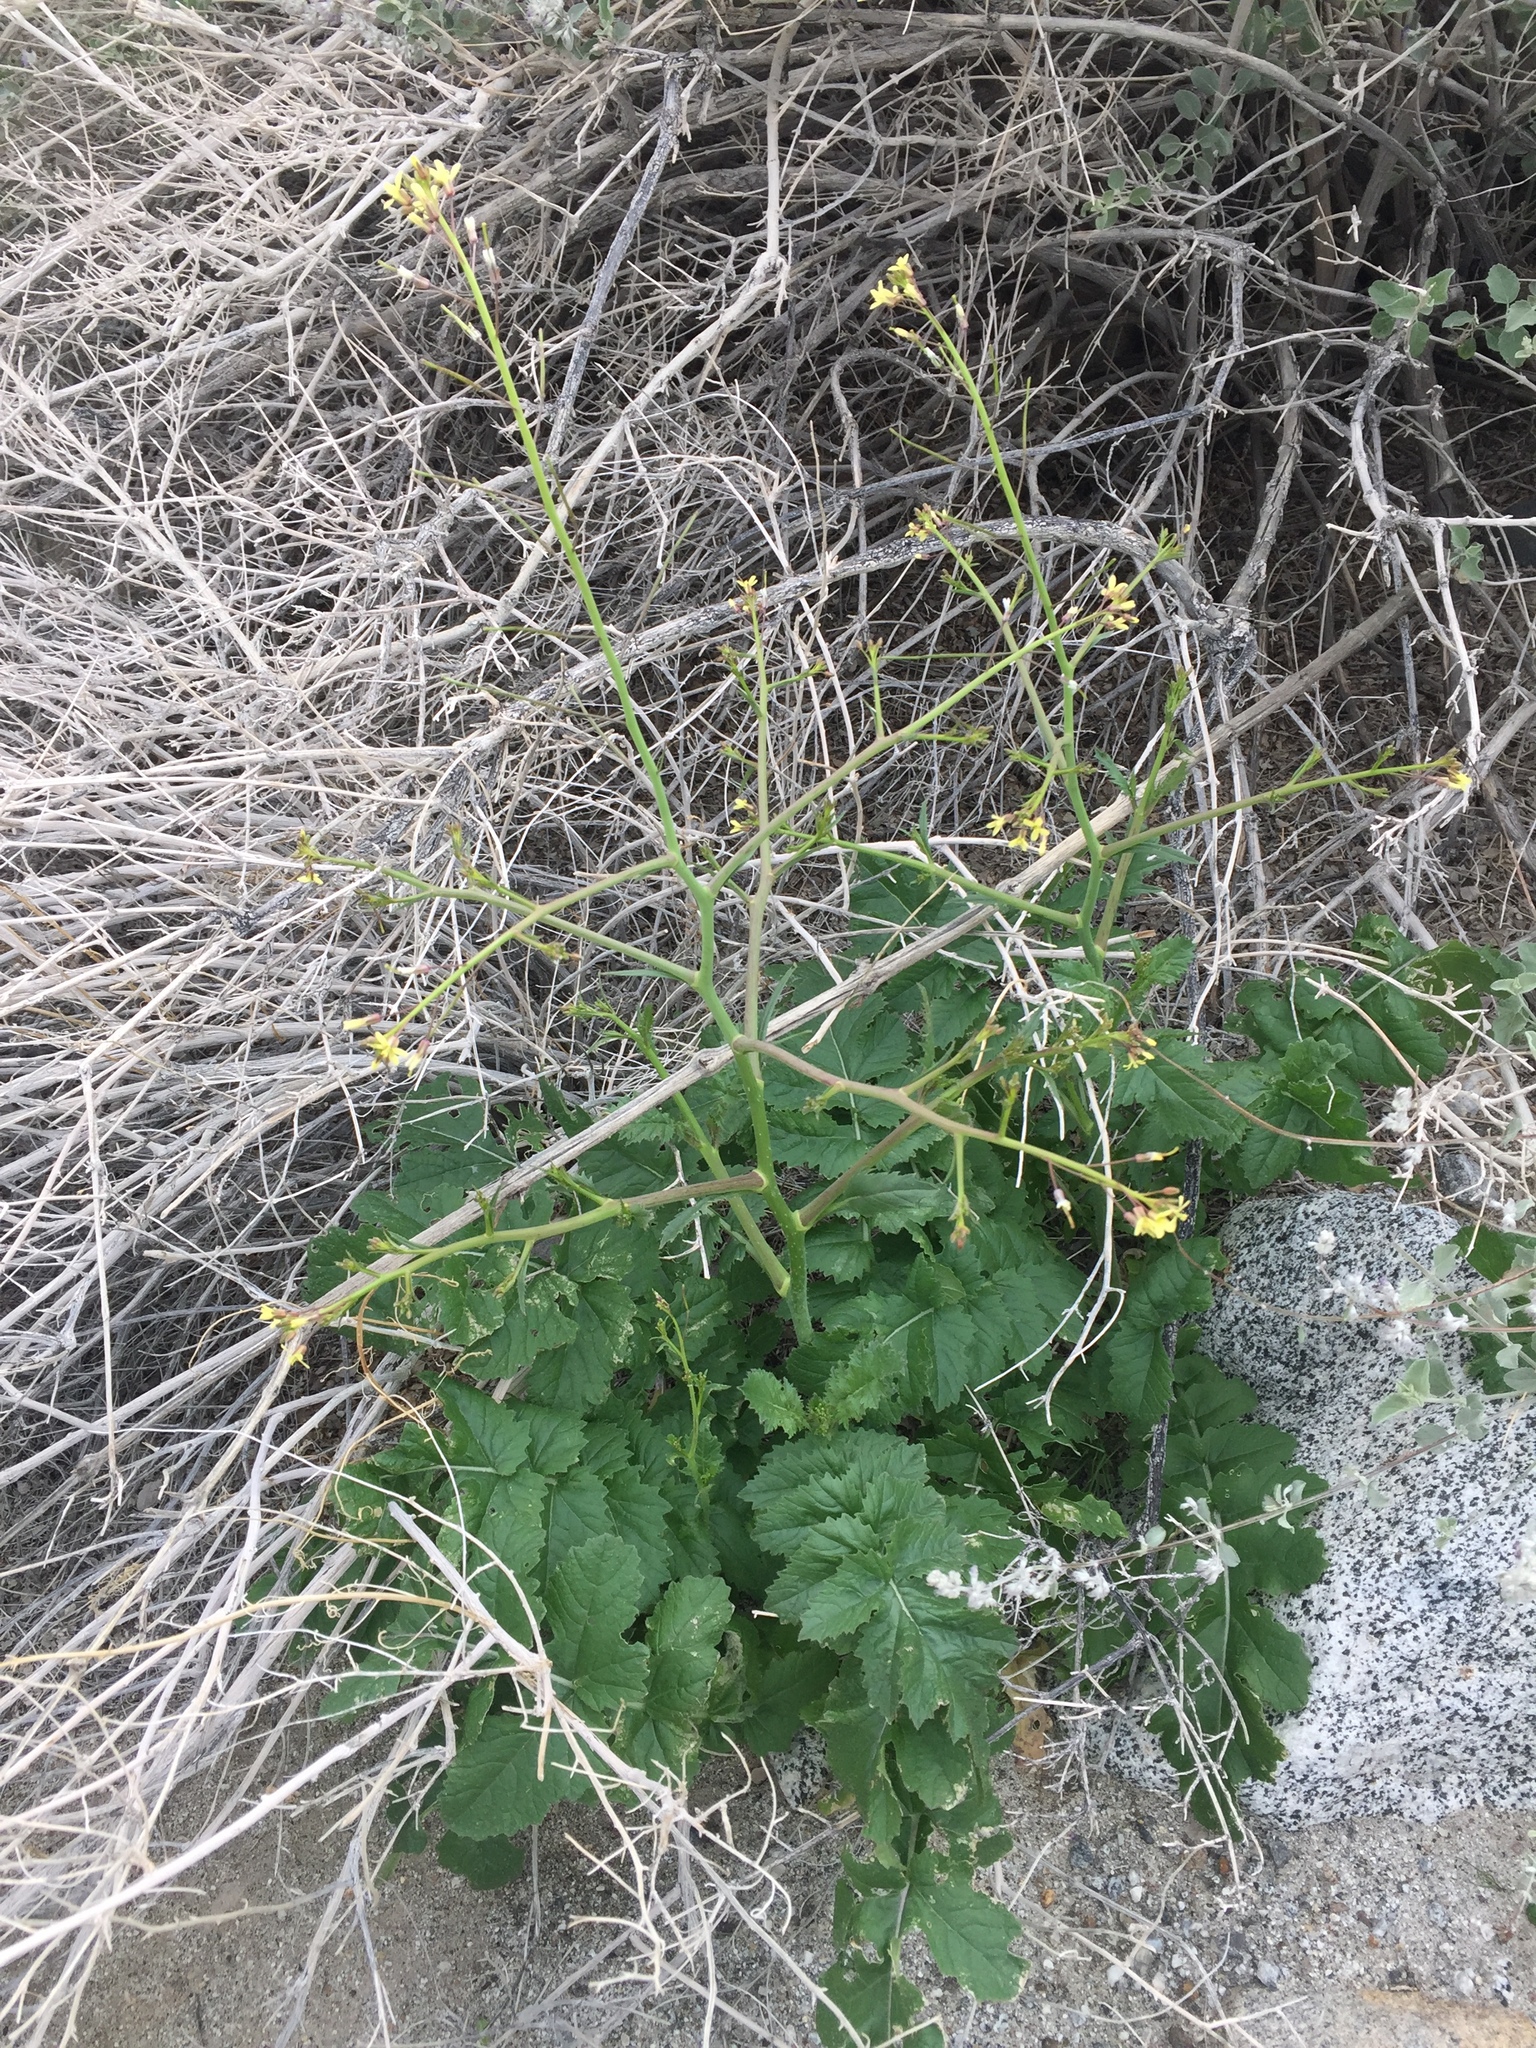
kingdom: Plantae
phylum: Tracheophyta
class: Magnoliopsida
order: Brassicales
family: Brassicaceae
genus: Brassica
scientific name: Brassica tournefortii
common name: Pale cabbage
